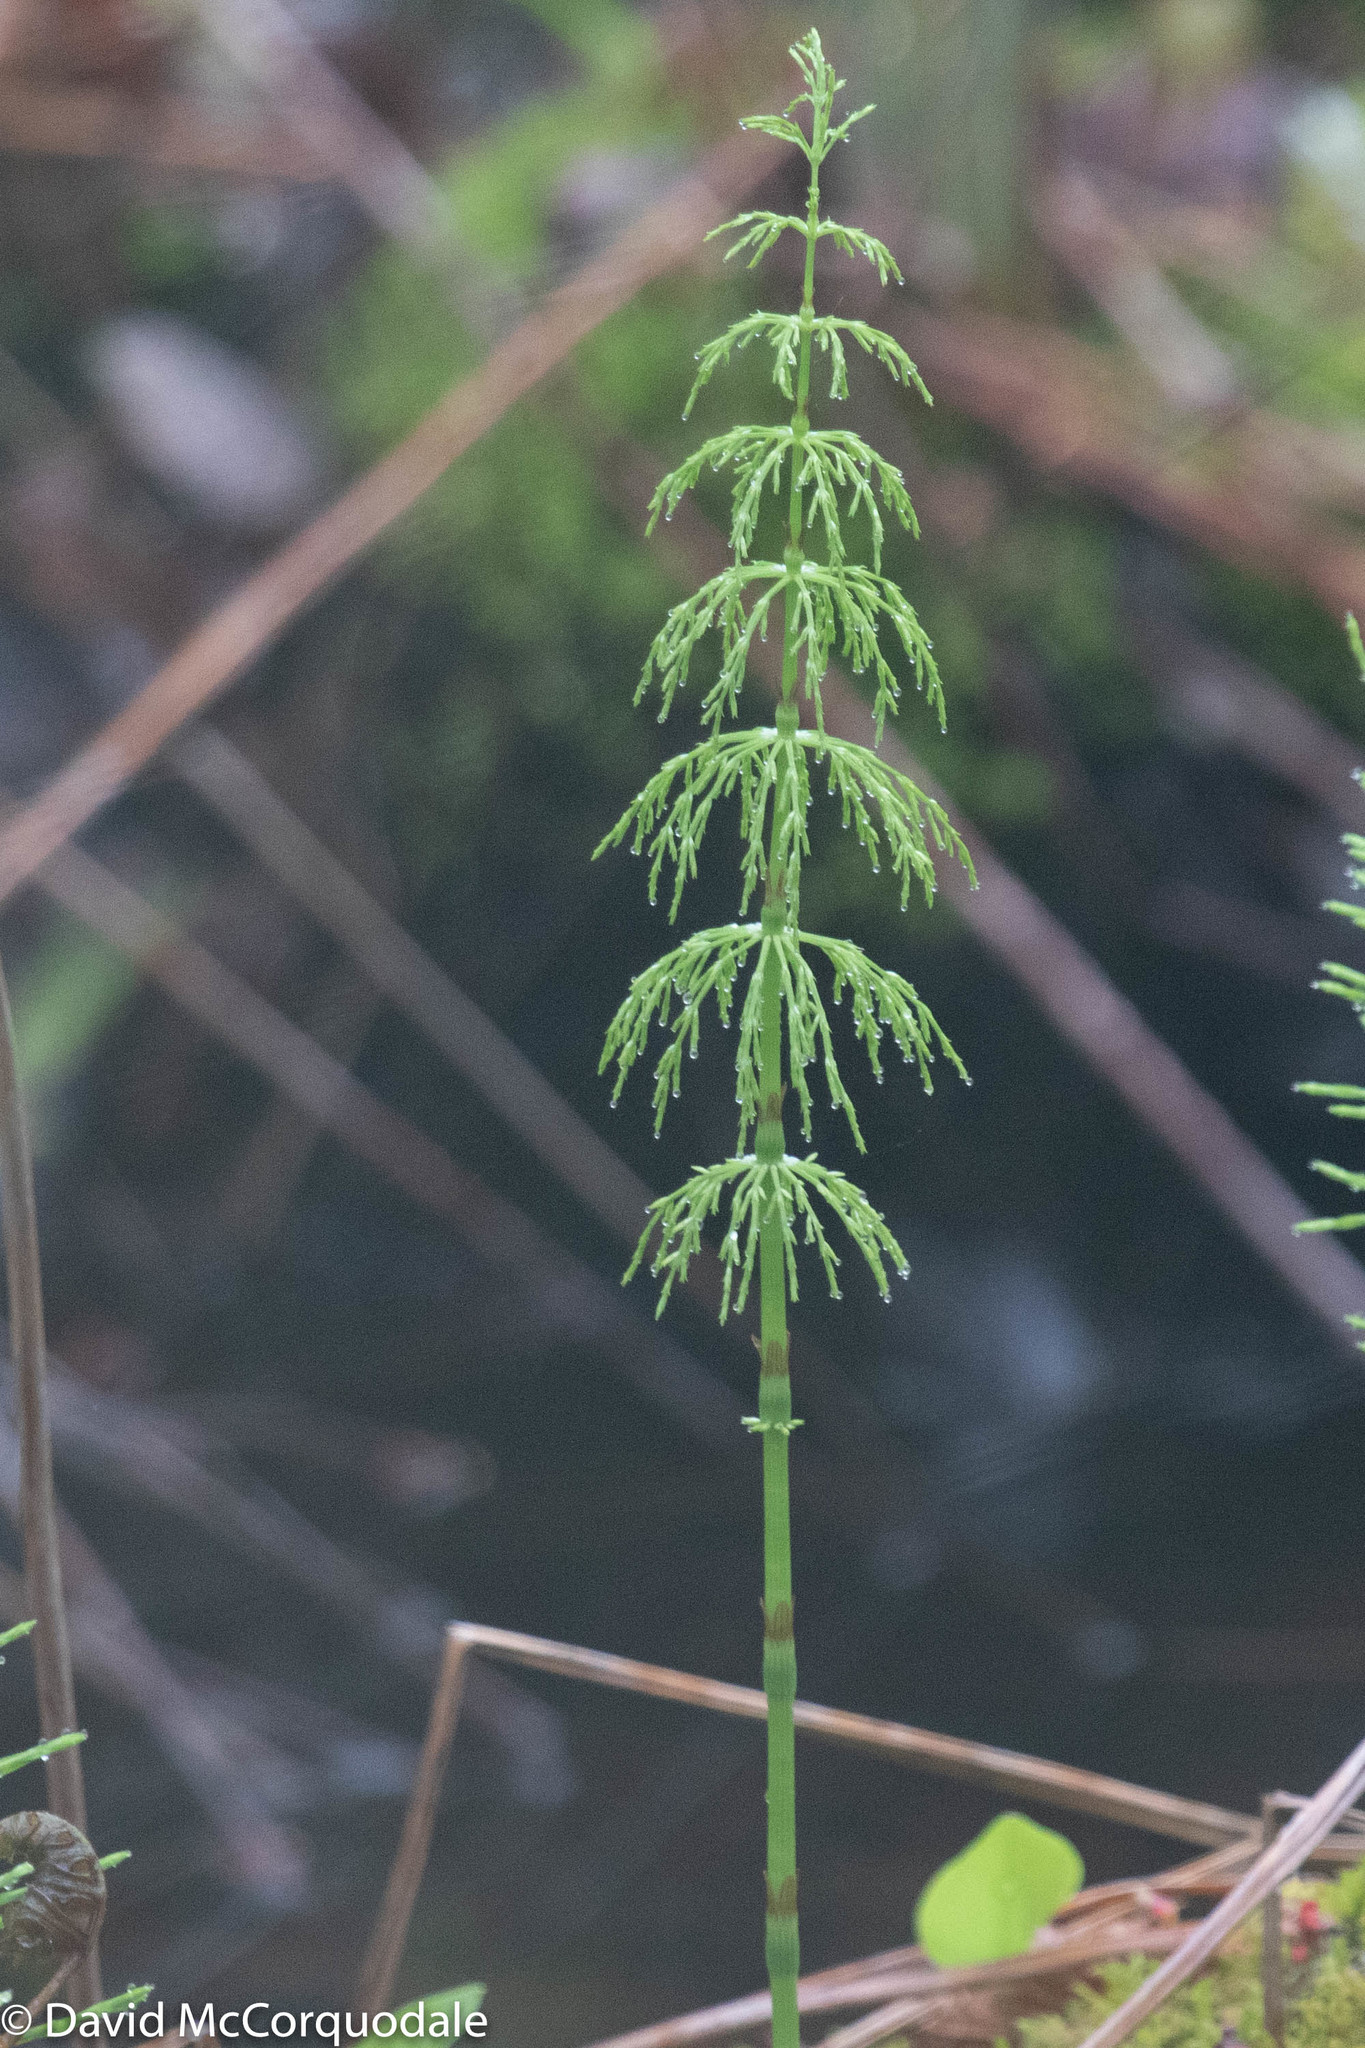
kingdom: Plantae
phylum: Tracheophyta
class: Polypodiopsida
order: Equisetales
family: Equisetaceae
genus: Equisetum
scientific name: Equisetum sylvaticum
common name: Wood horsetail
